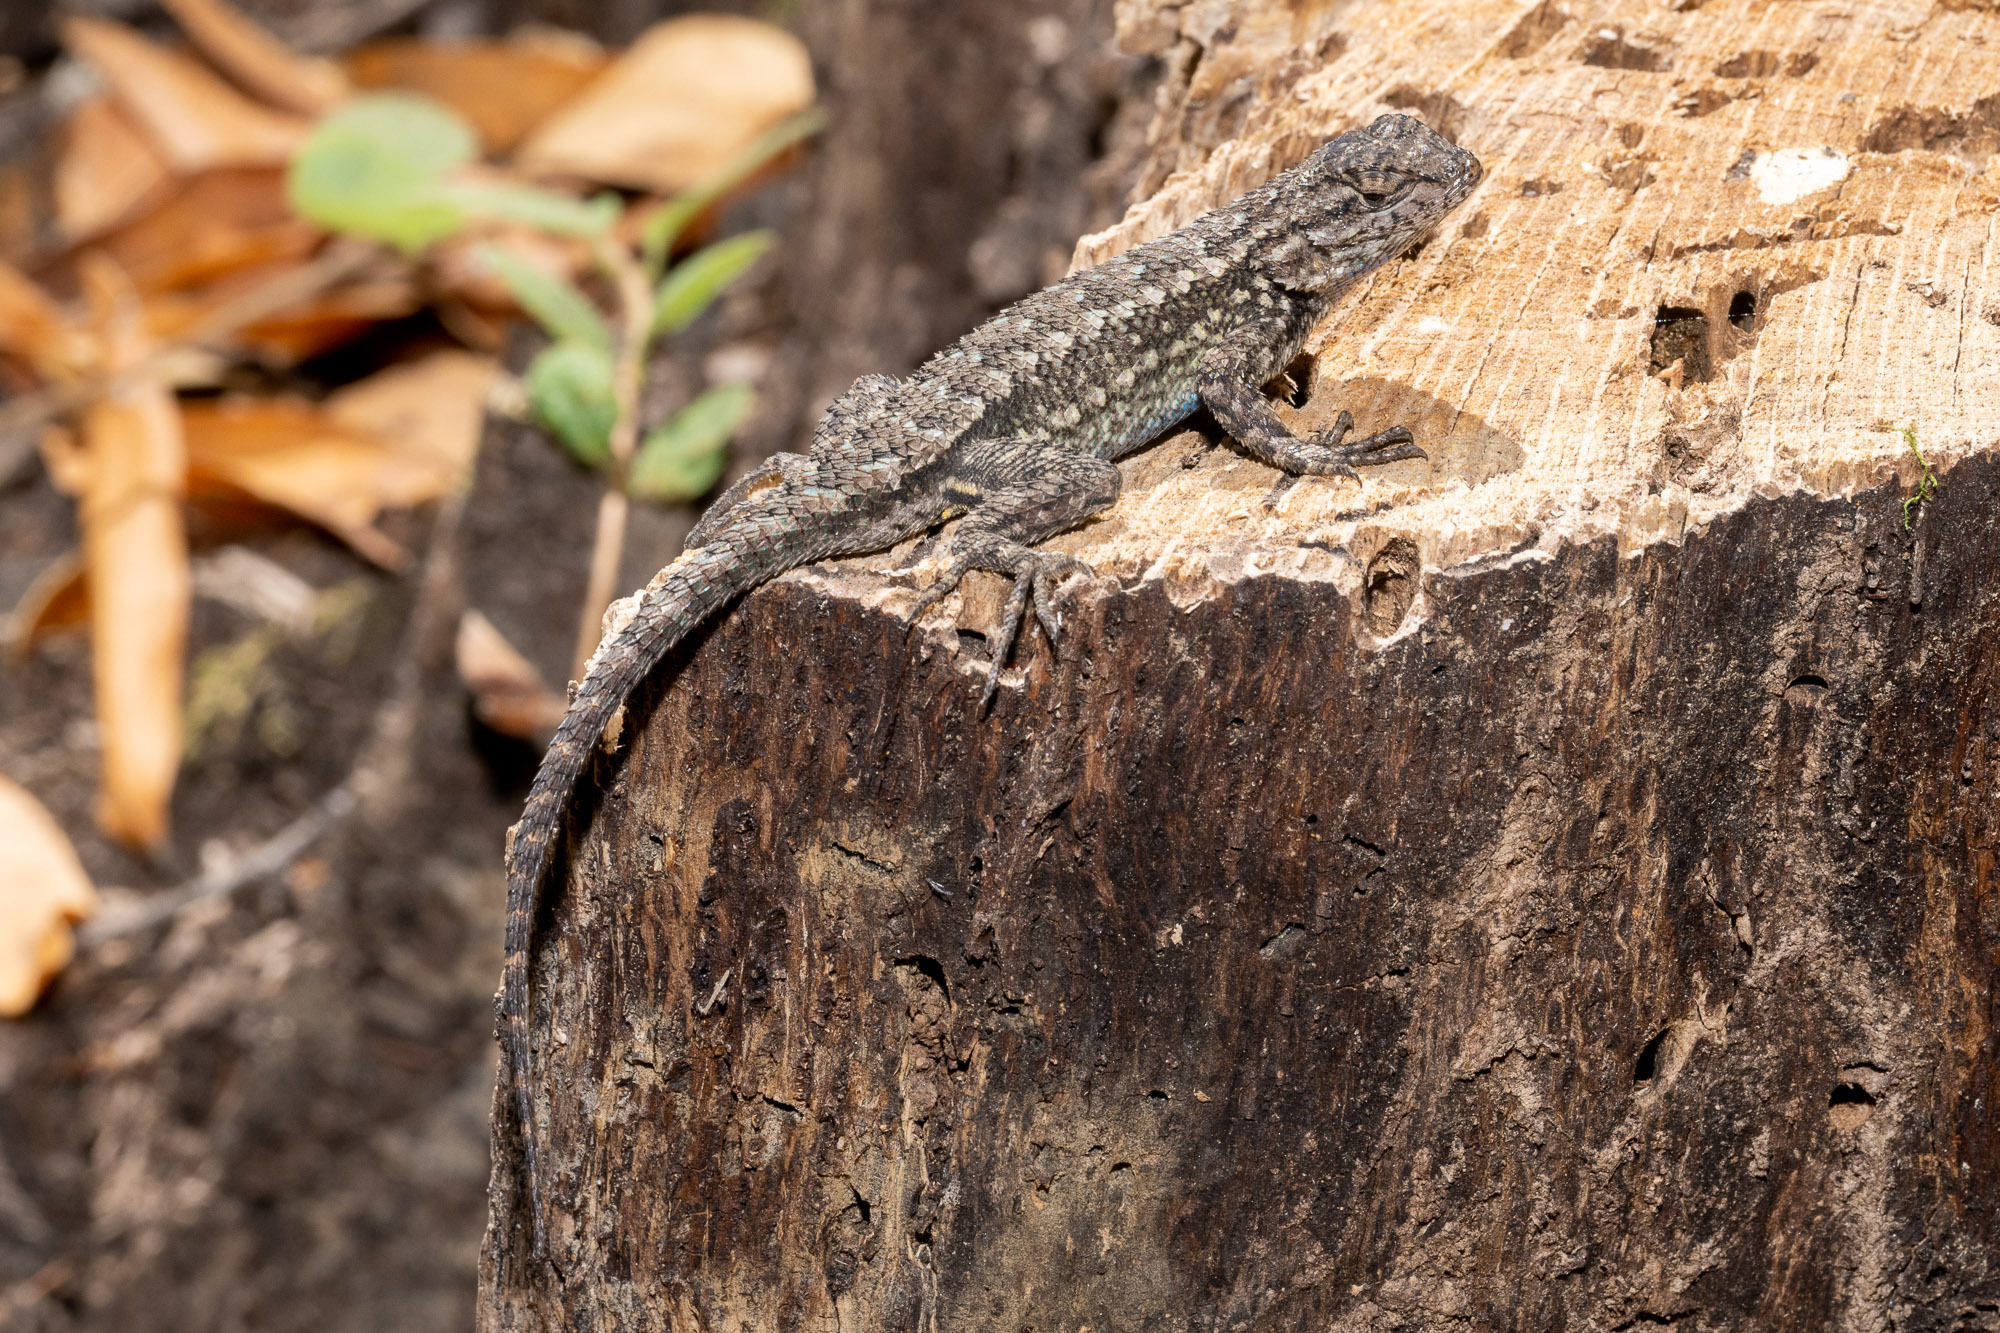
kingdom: Animalia
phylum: Chordata
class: Squamata
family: Phrynosomatidae
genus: Sceloporus
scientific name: Sceloporus occidentalis
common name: Western fence lizard
